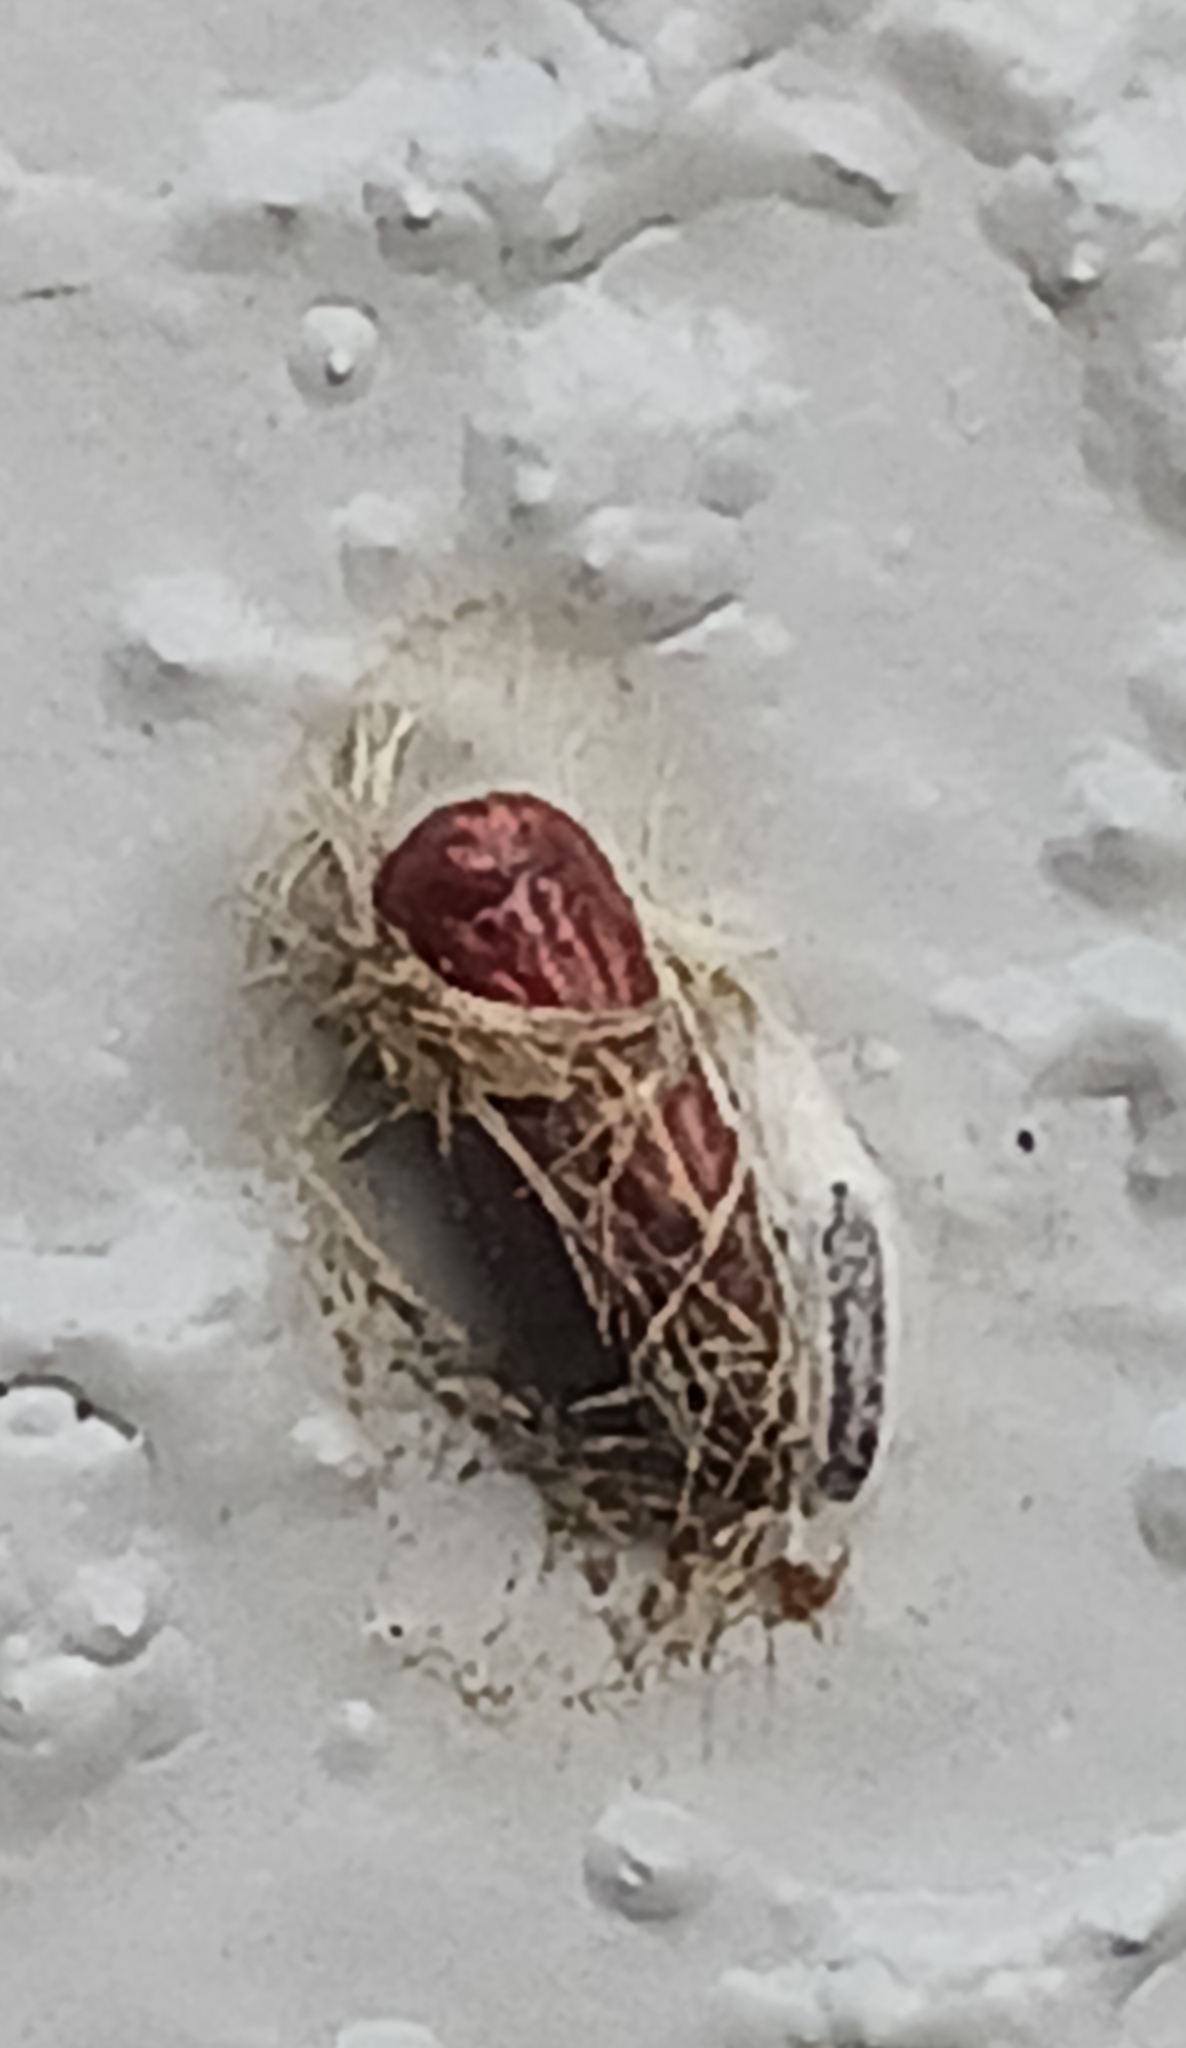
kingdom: Animalia
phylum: Arthropoda
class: Insecta
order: Lepidoptera
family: Erebidae
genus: Lymire
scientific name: Lymire edwardsii
